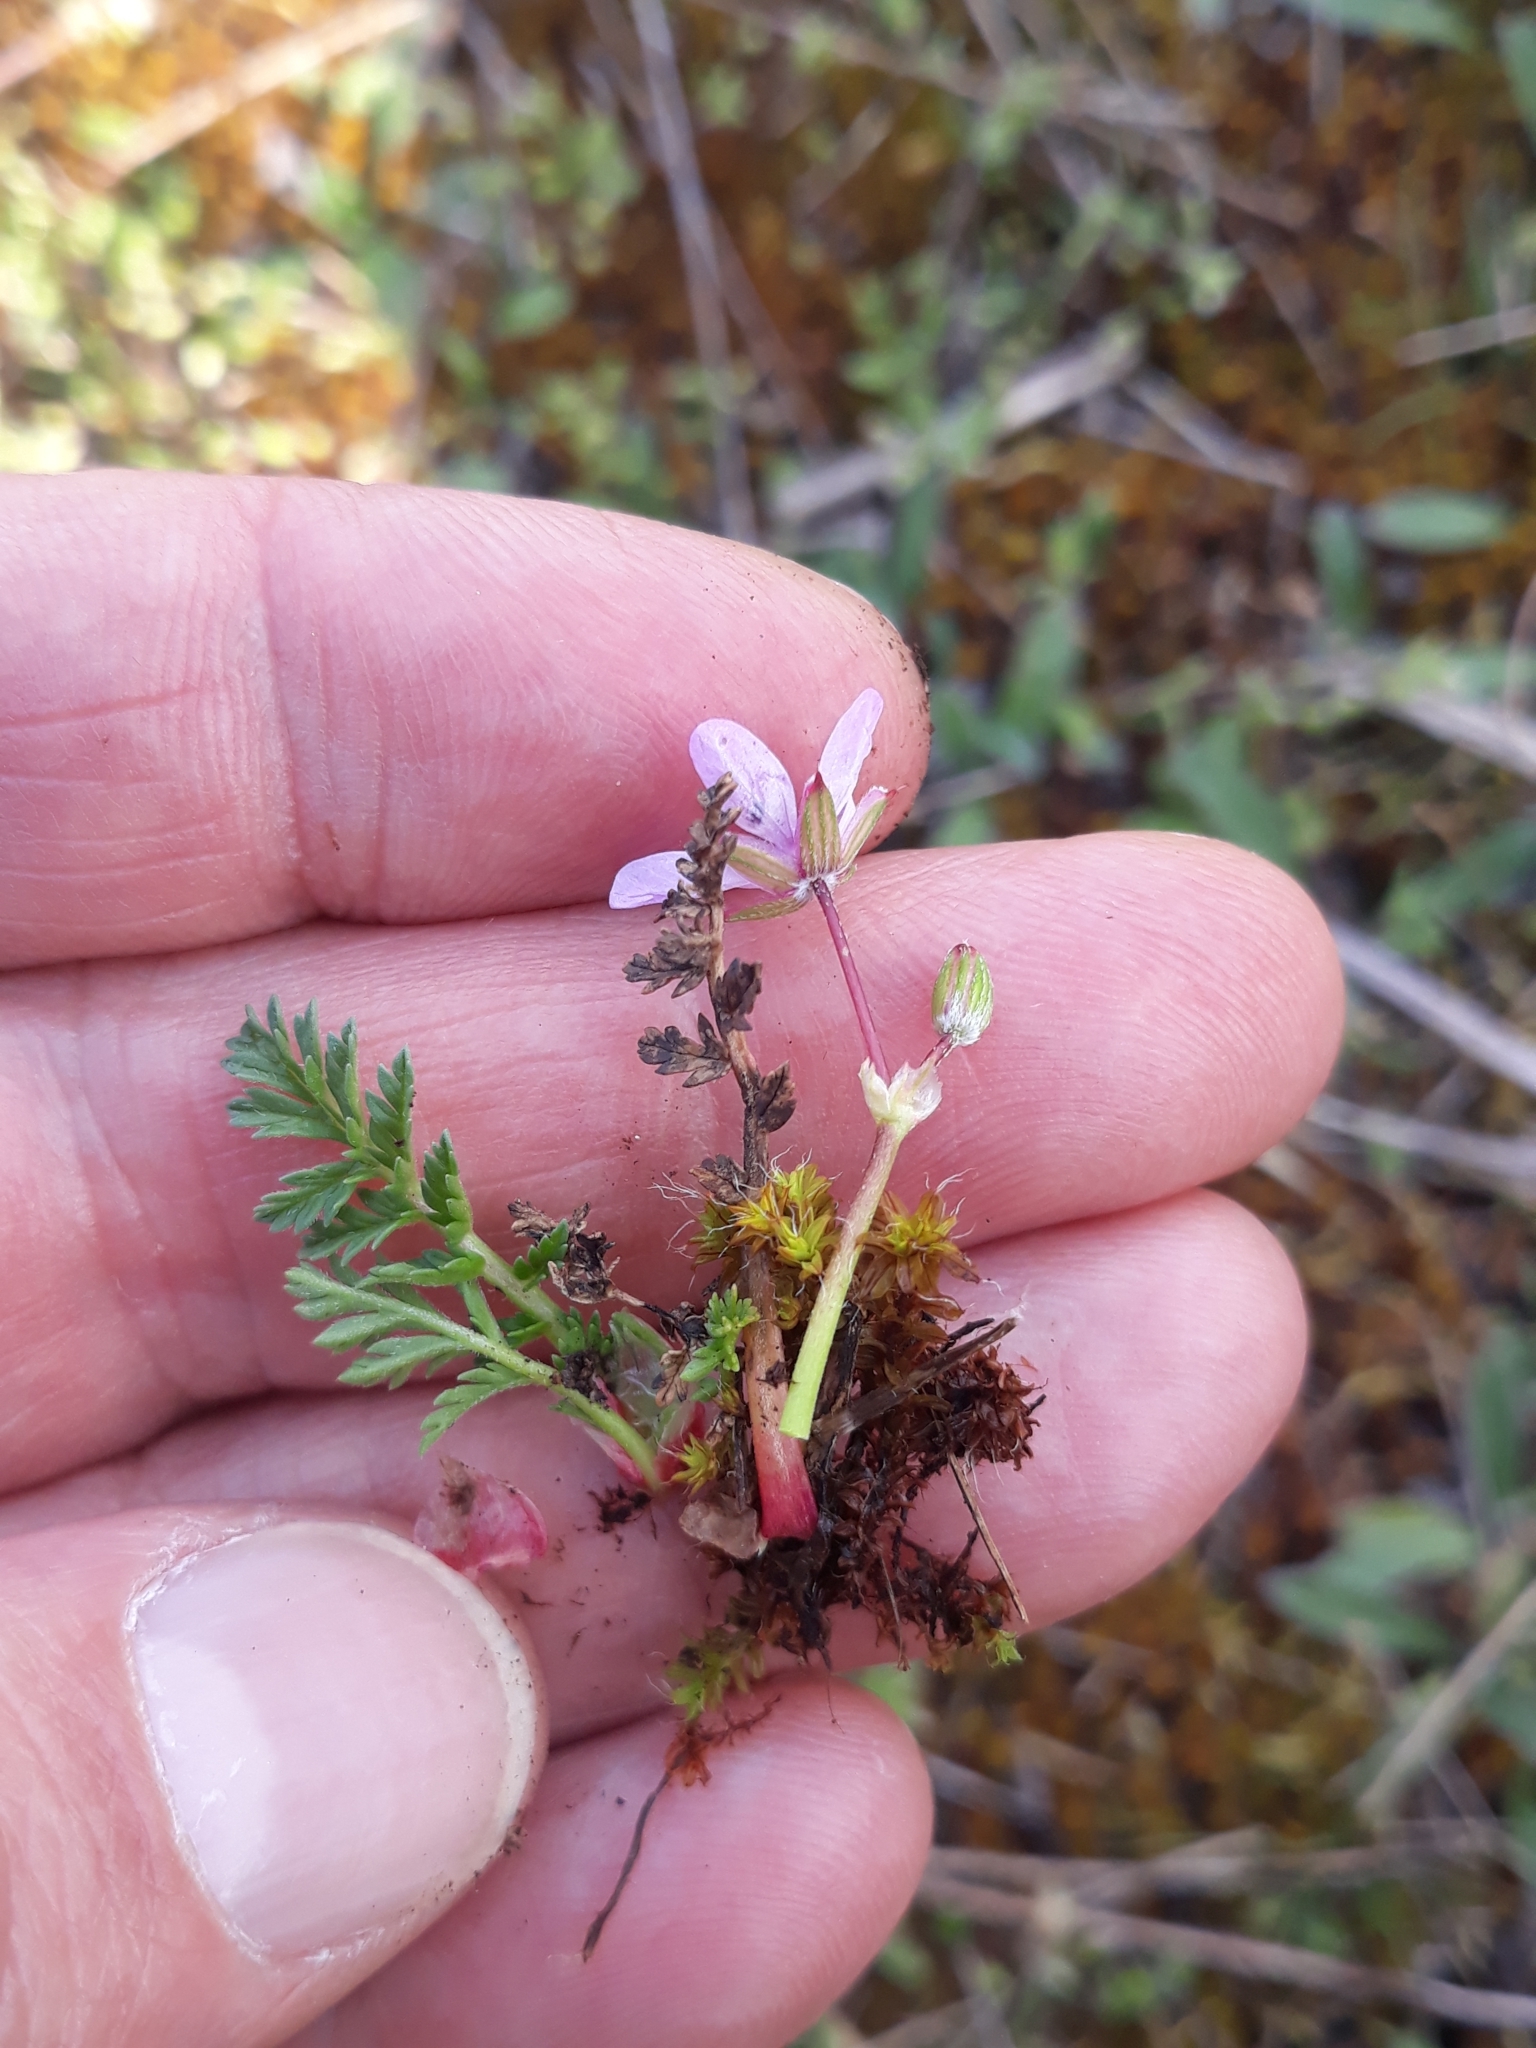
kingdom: Plantae
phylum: Tracheophyta
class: Magnoliopsida
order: Geraniales
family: Geraniaceae
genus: Erodium
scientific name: Erodium cicutarium
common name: Common stork's-bill
